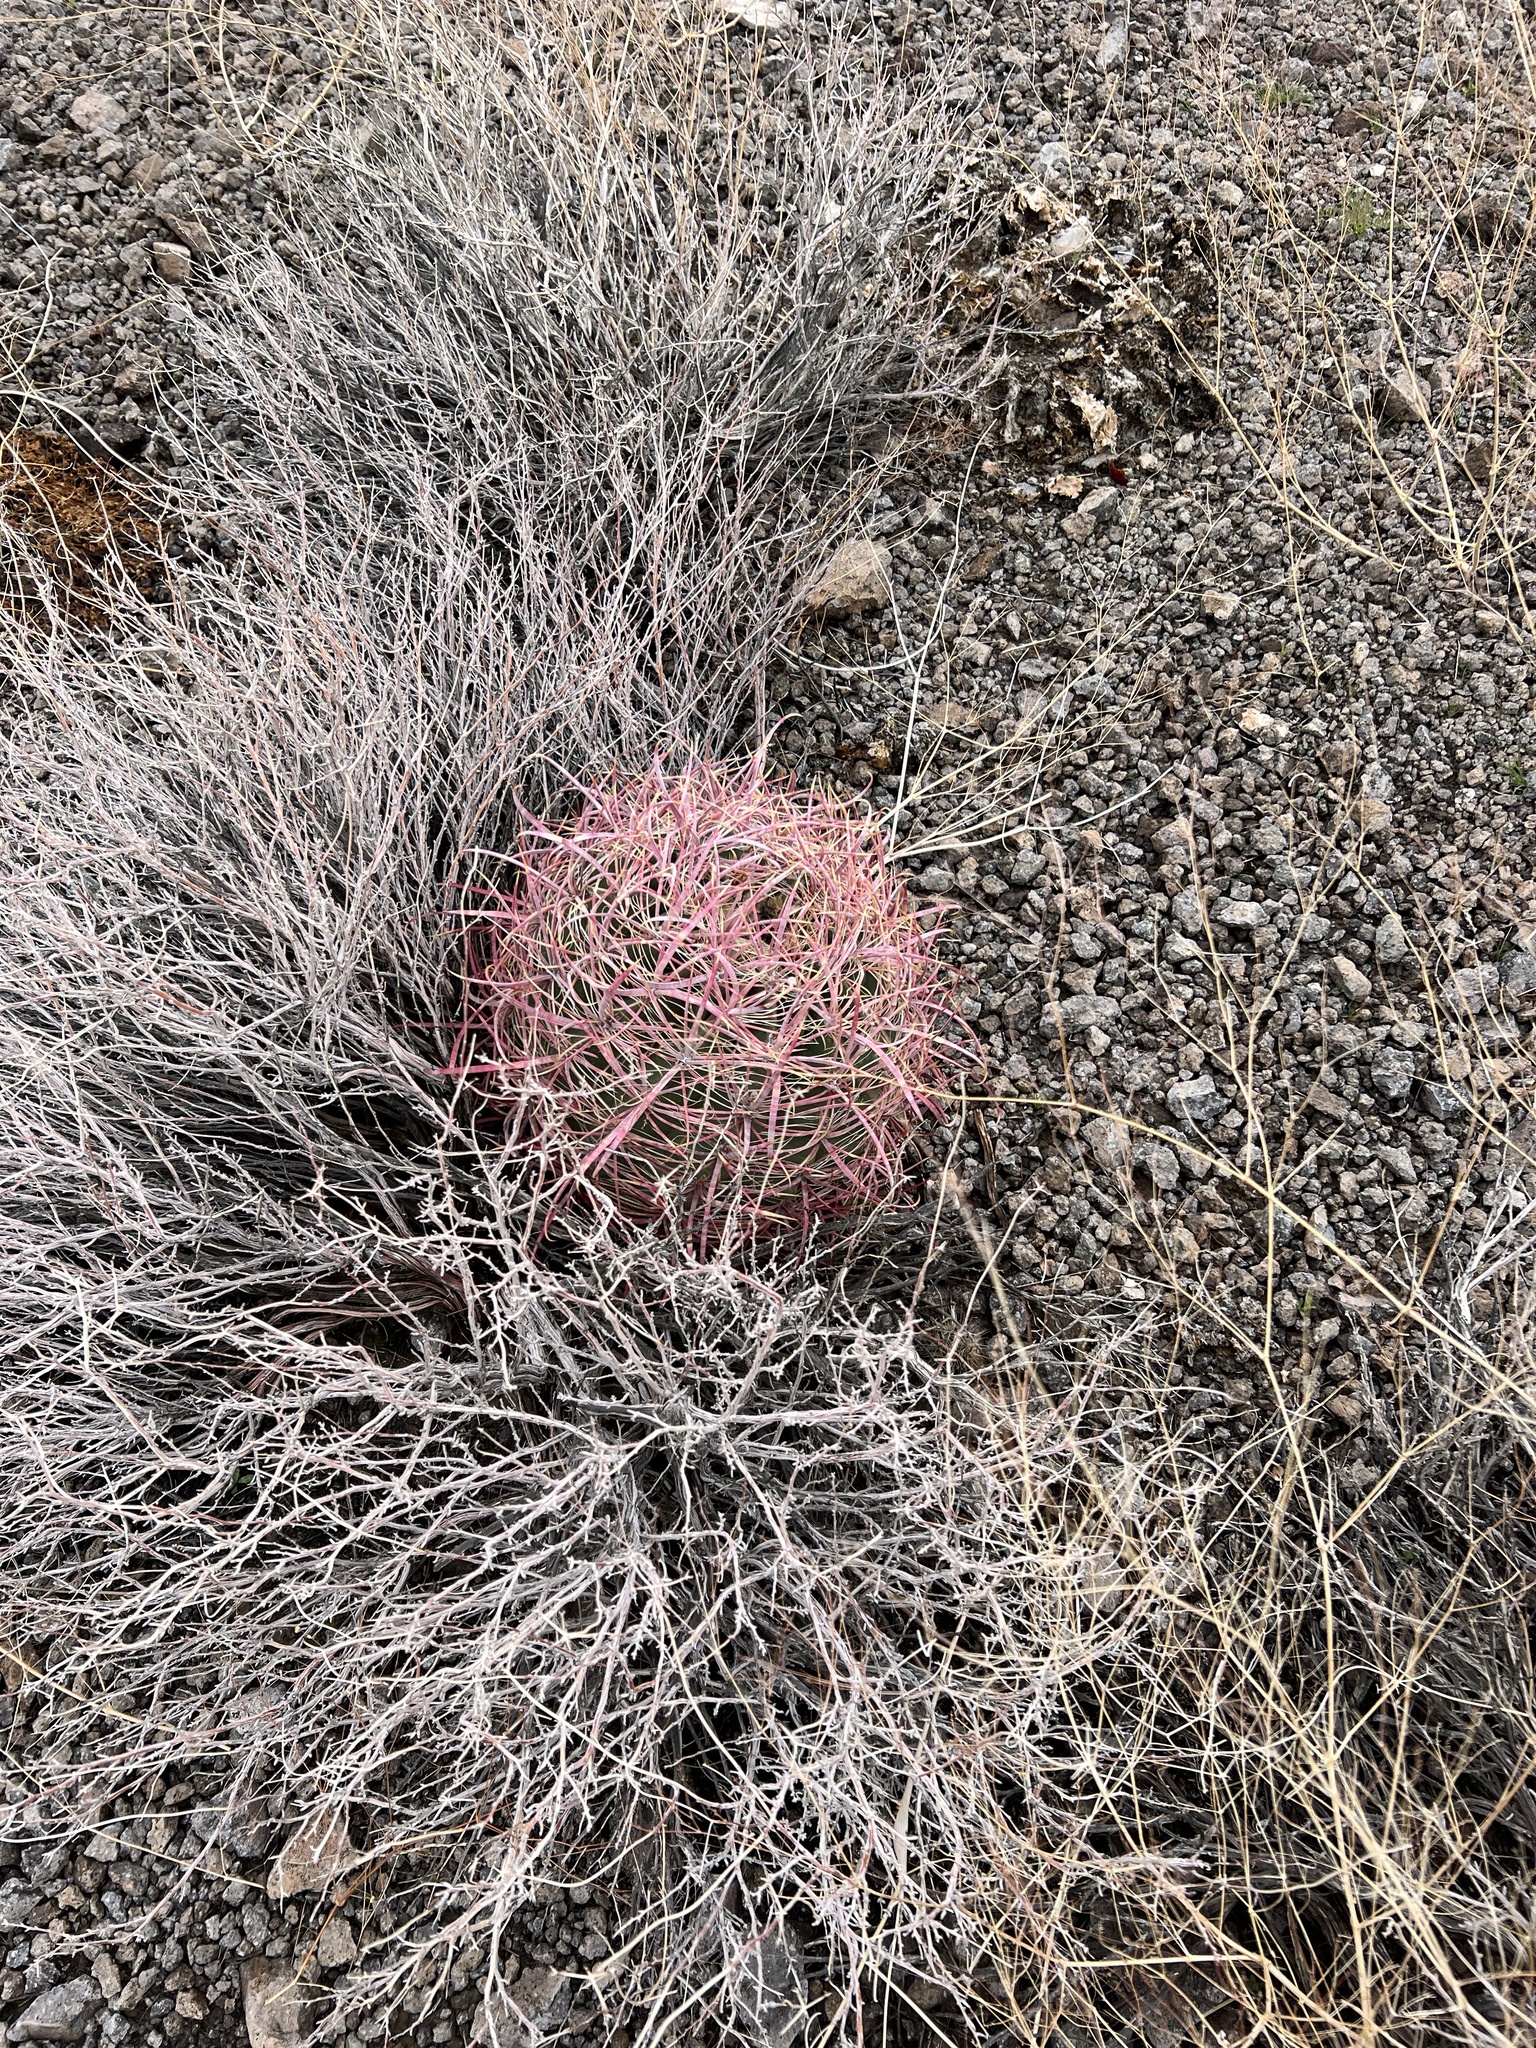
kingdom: Plantae
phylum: Tracheophyta
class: Magnoliopsida
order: Caryophyllales
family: Cactaceae
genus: Ferocactus
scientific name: Ferocactus cylindraceus
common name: California barrel cactus
